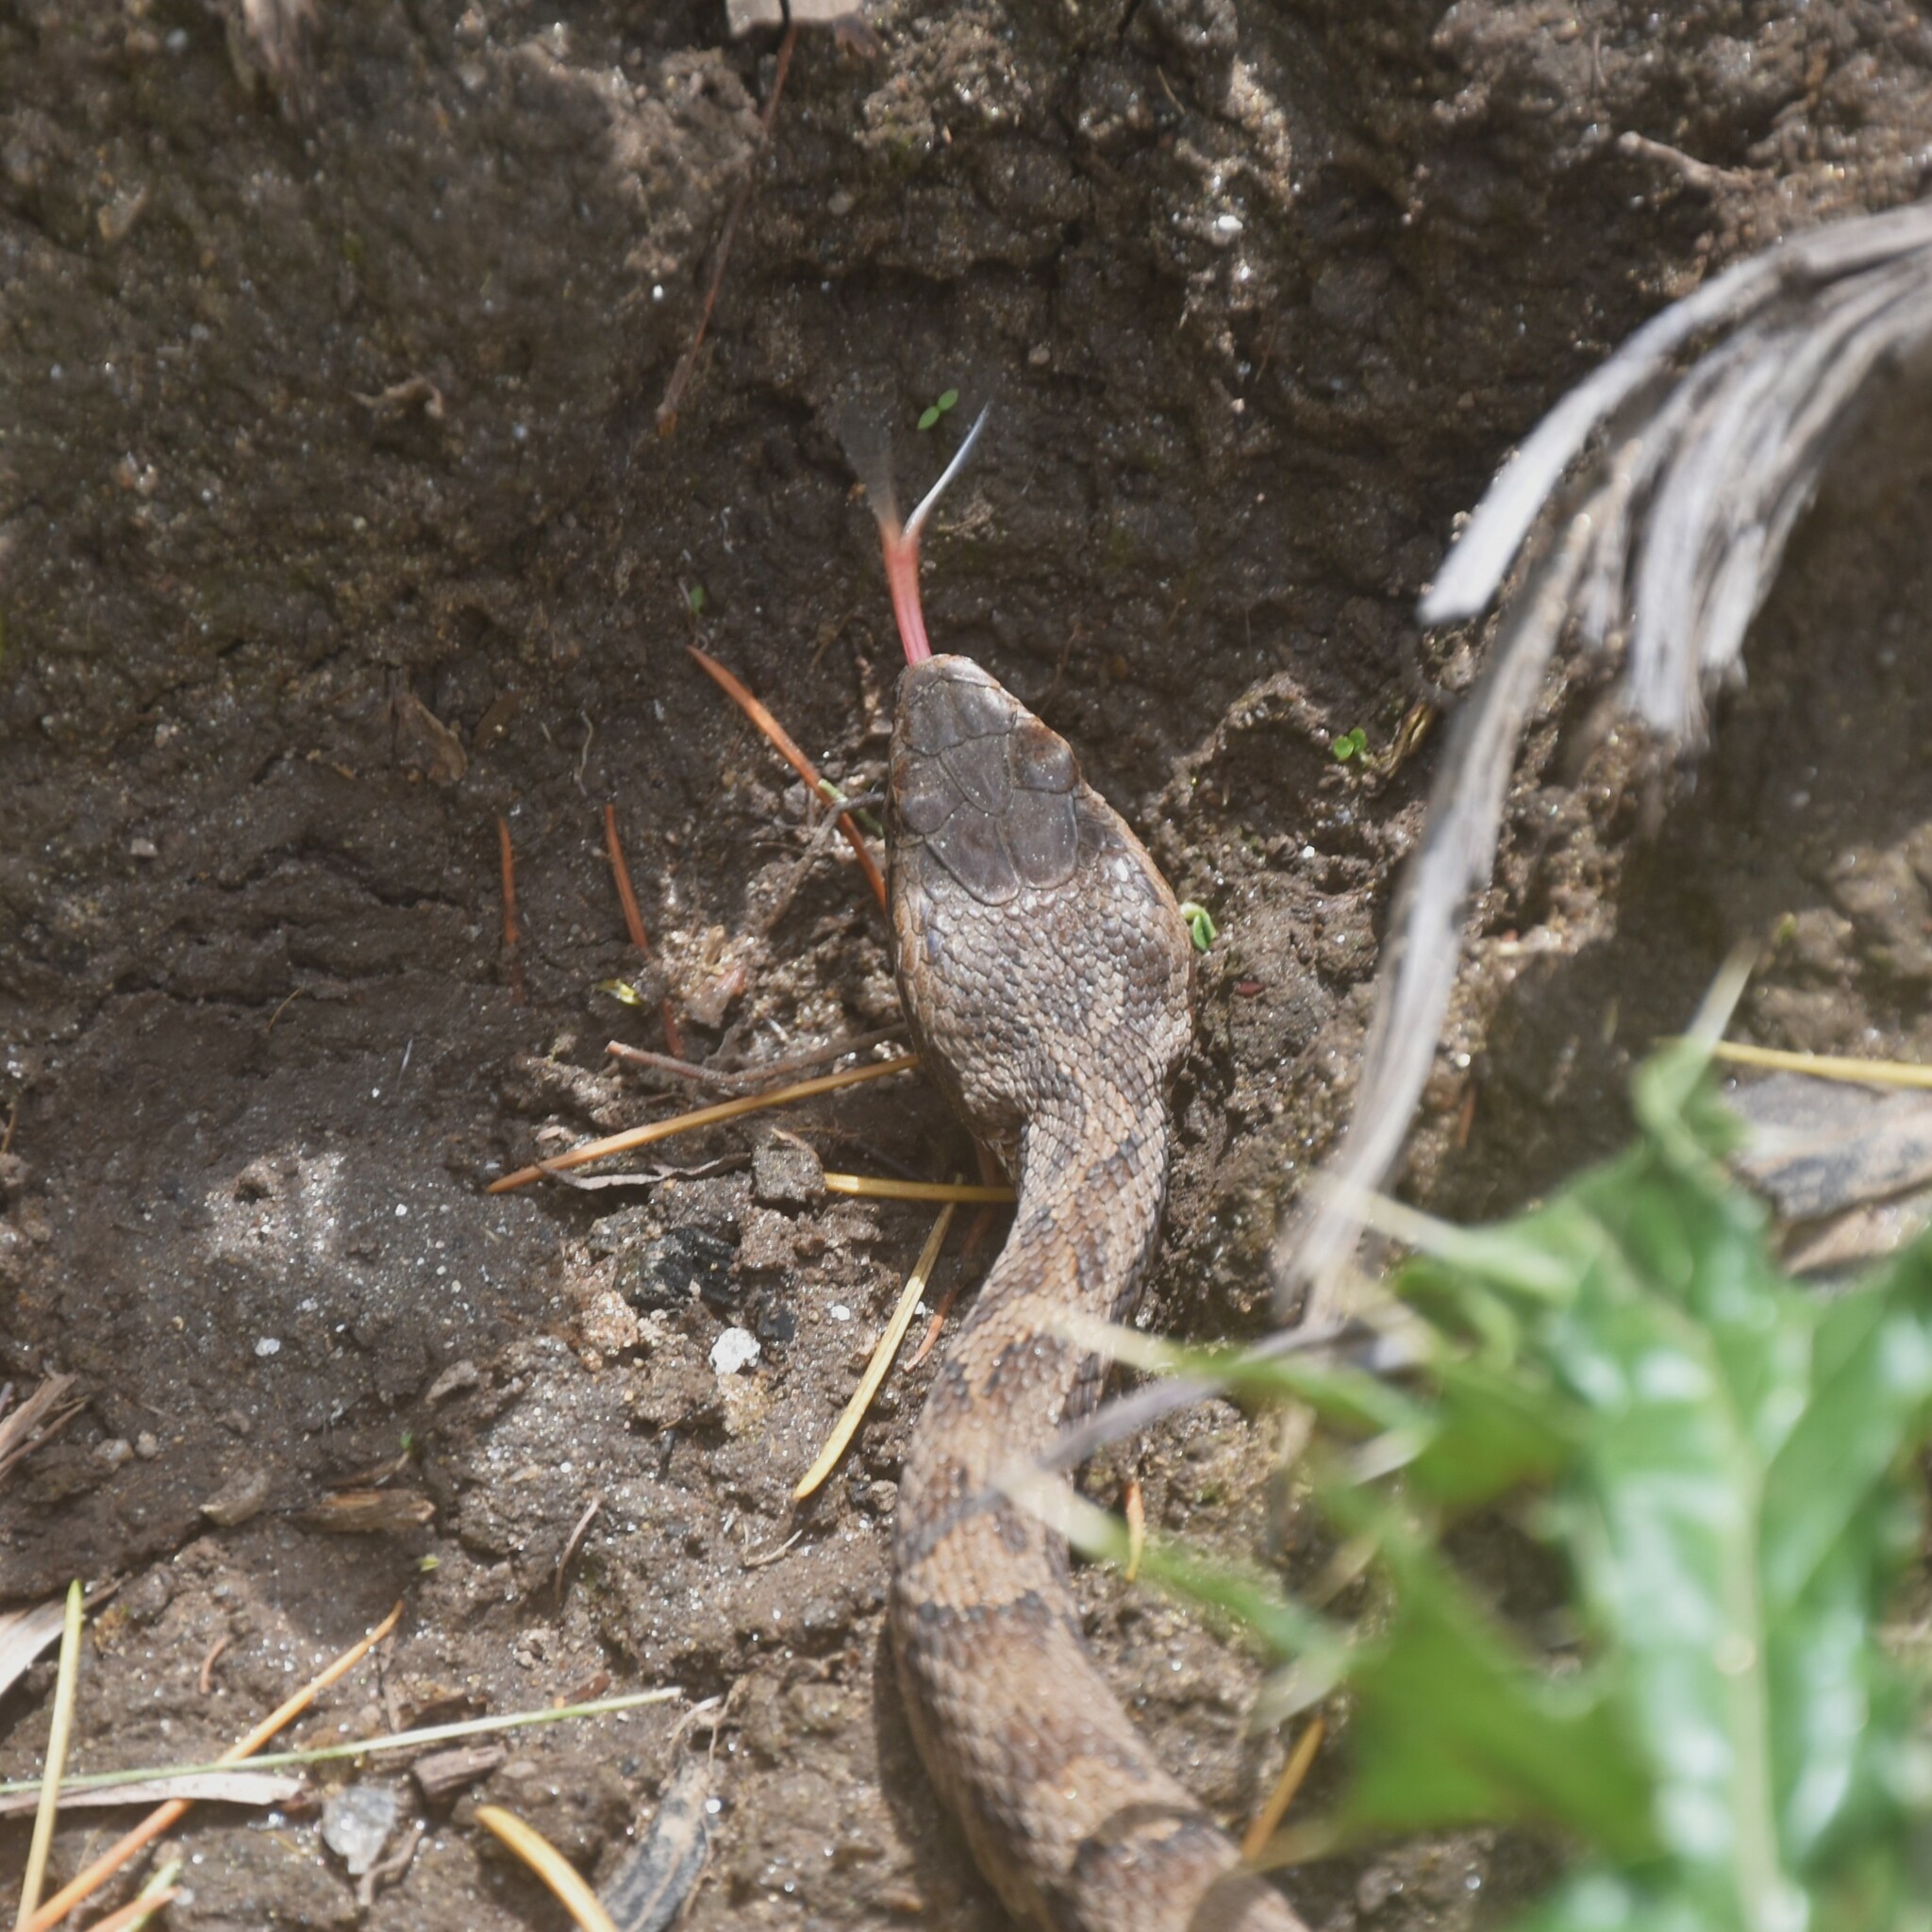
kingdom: Animalia
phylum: Chordata
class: Squamata
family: Viperidae
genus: Gloydius
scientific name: Gloydius himalayanus
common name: Himalayan pit-viper
